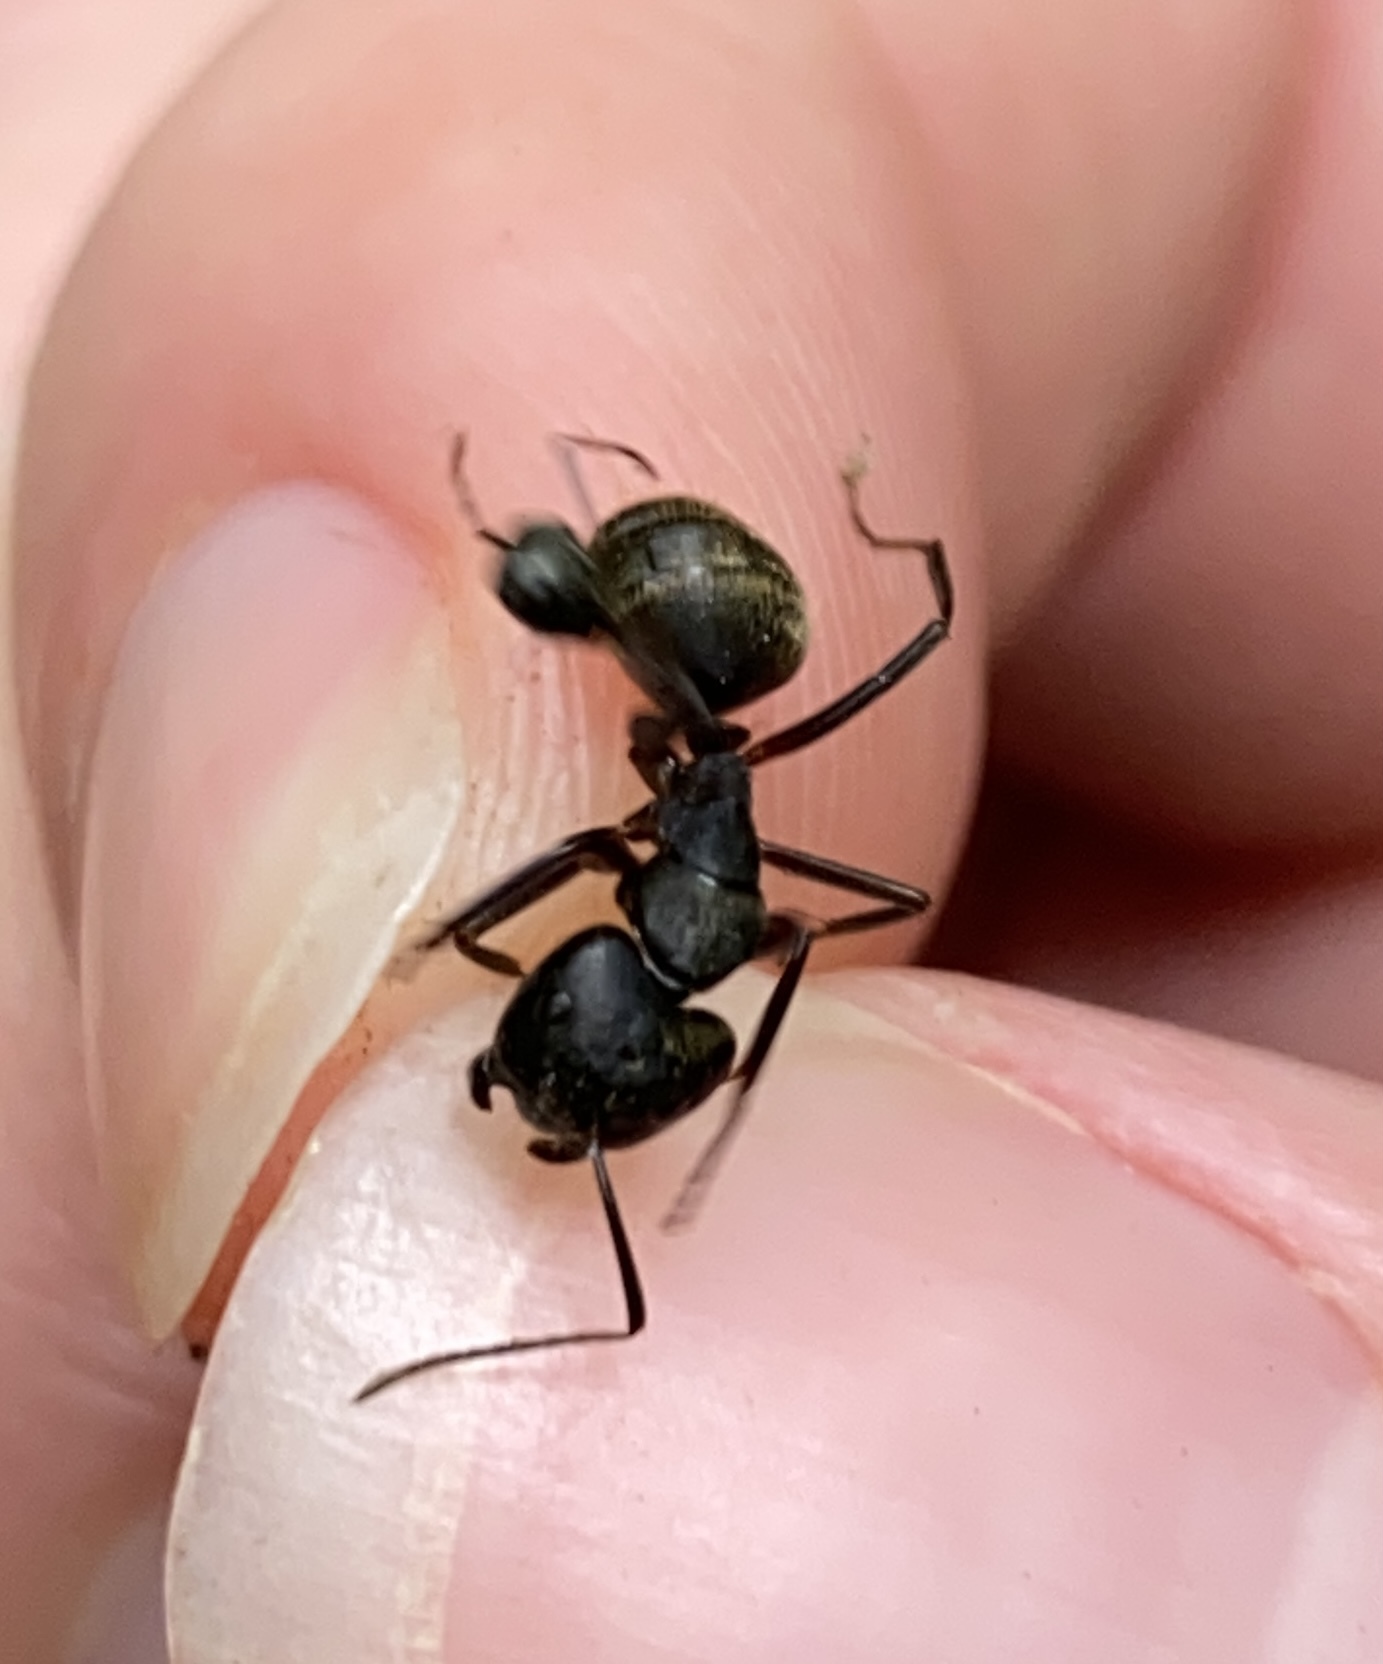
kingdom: Animalia
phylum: Arthropoda
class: Insecta
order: Hymenoptera
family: Formicidae
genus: Camponotus
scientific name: Camponotus chromaiodes
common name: Red carpenter ant
